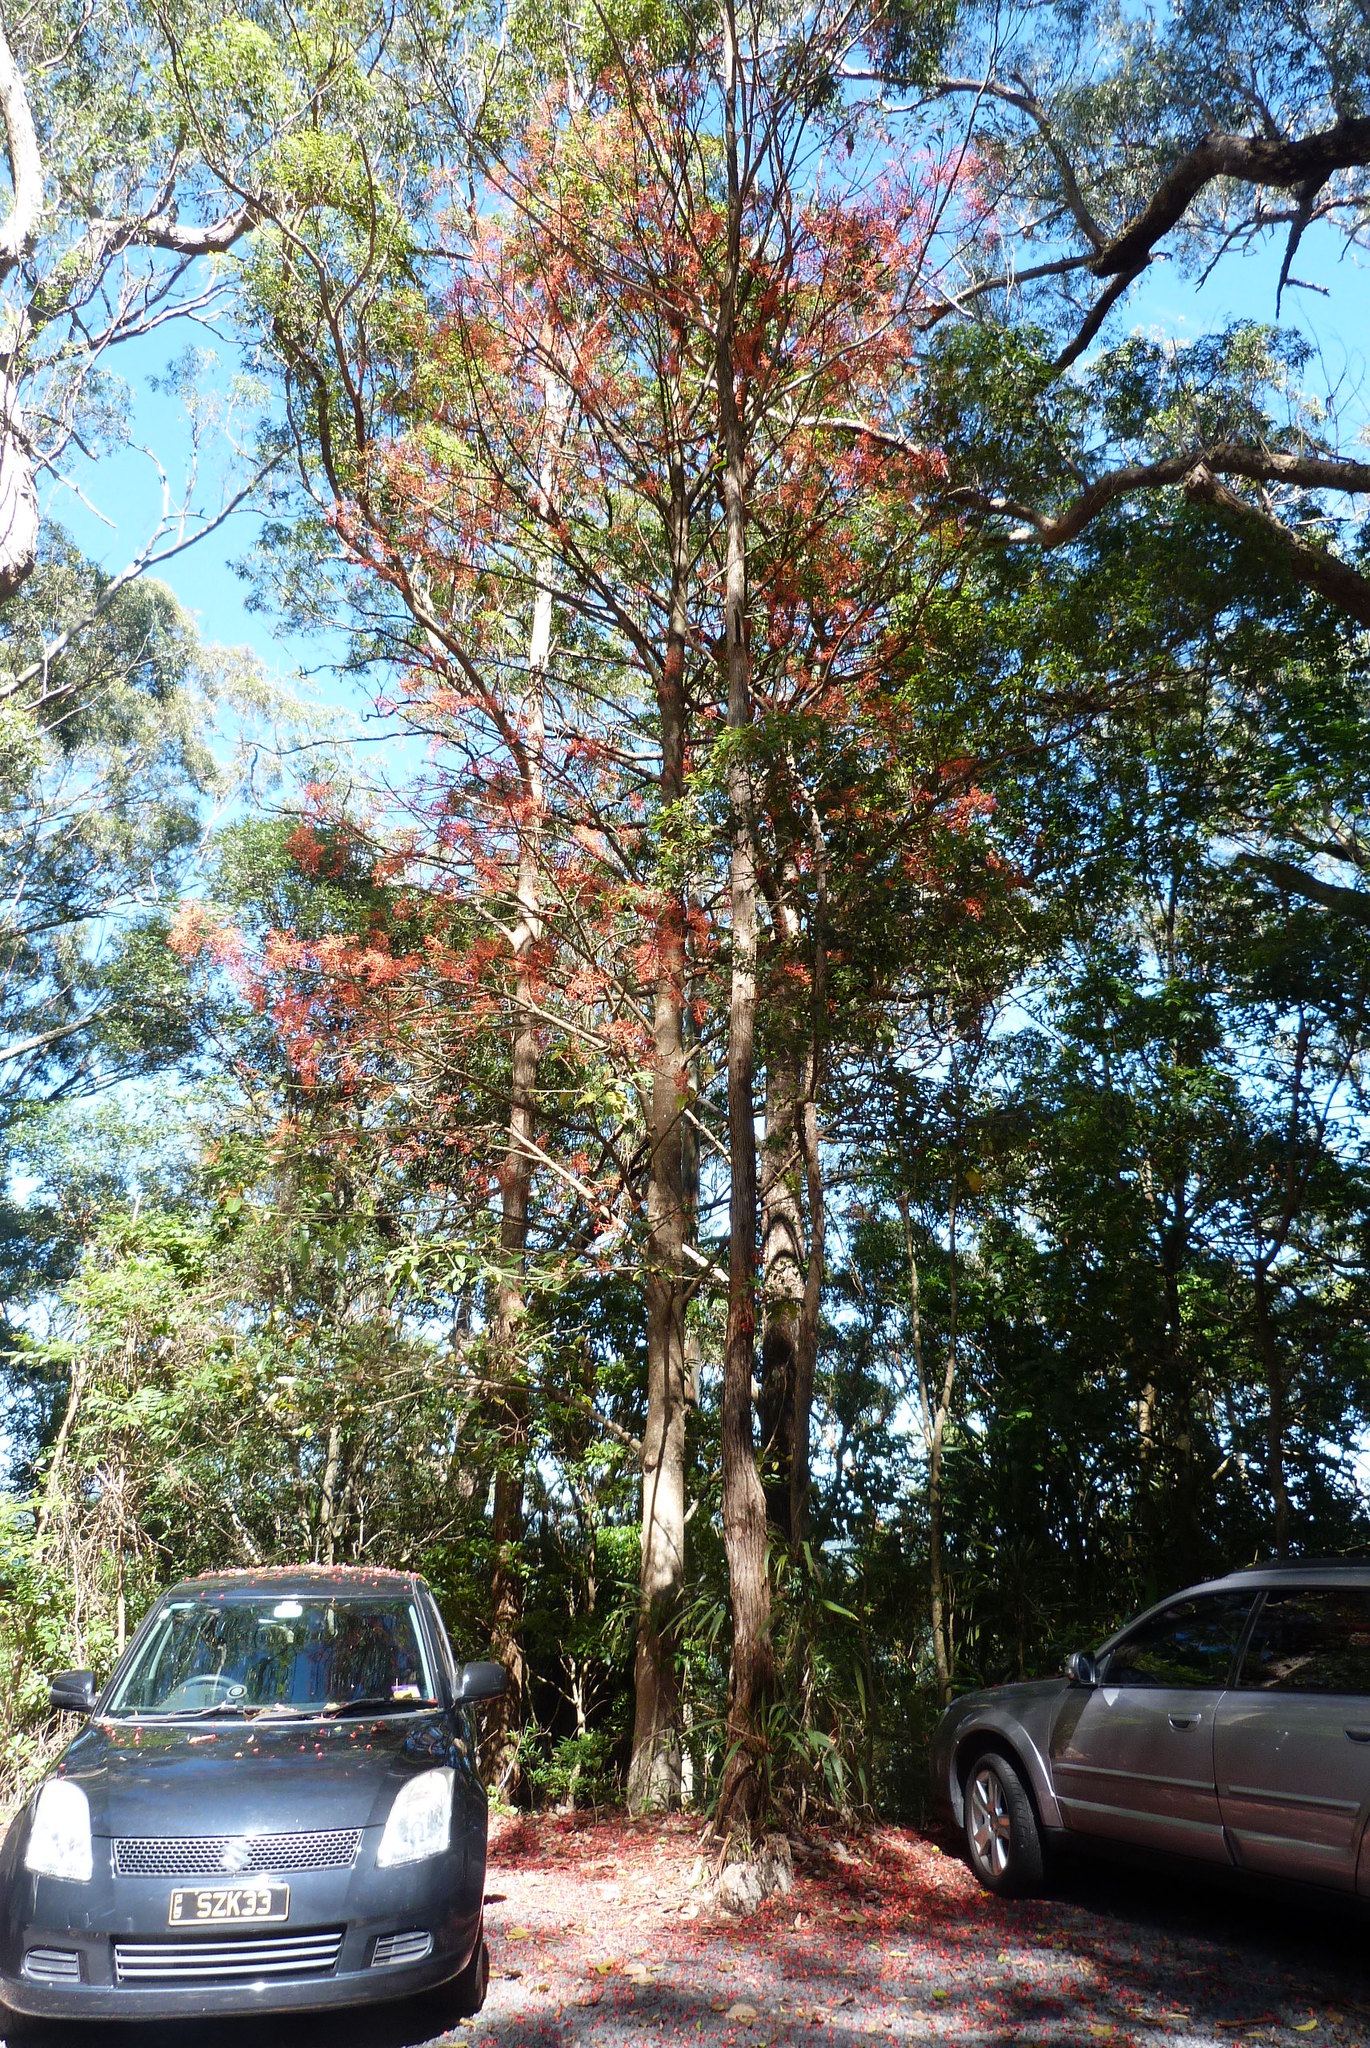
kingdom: Plantae
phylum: Tracheophyta
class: Magnoliopsida
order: Malvales
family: Malvaceae
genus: Brachychiton
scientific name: Brachychiton acerifolius
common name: Illawarra flame tree
